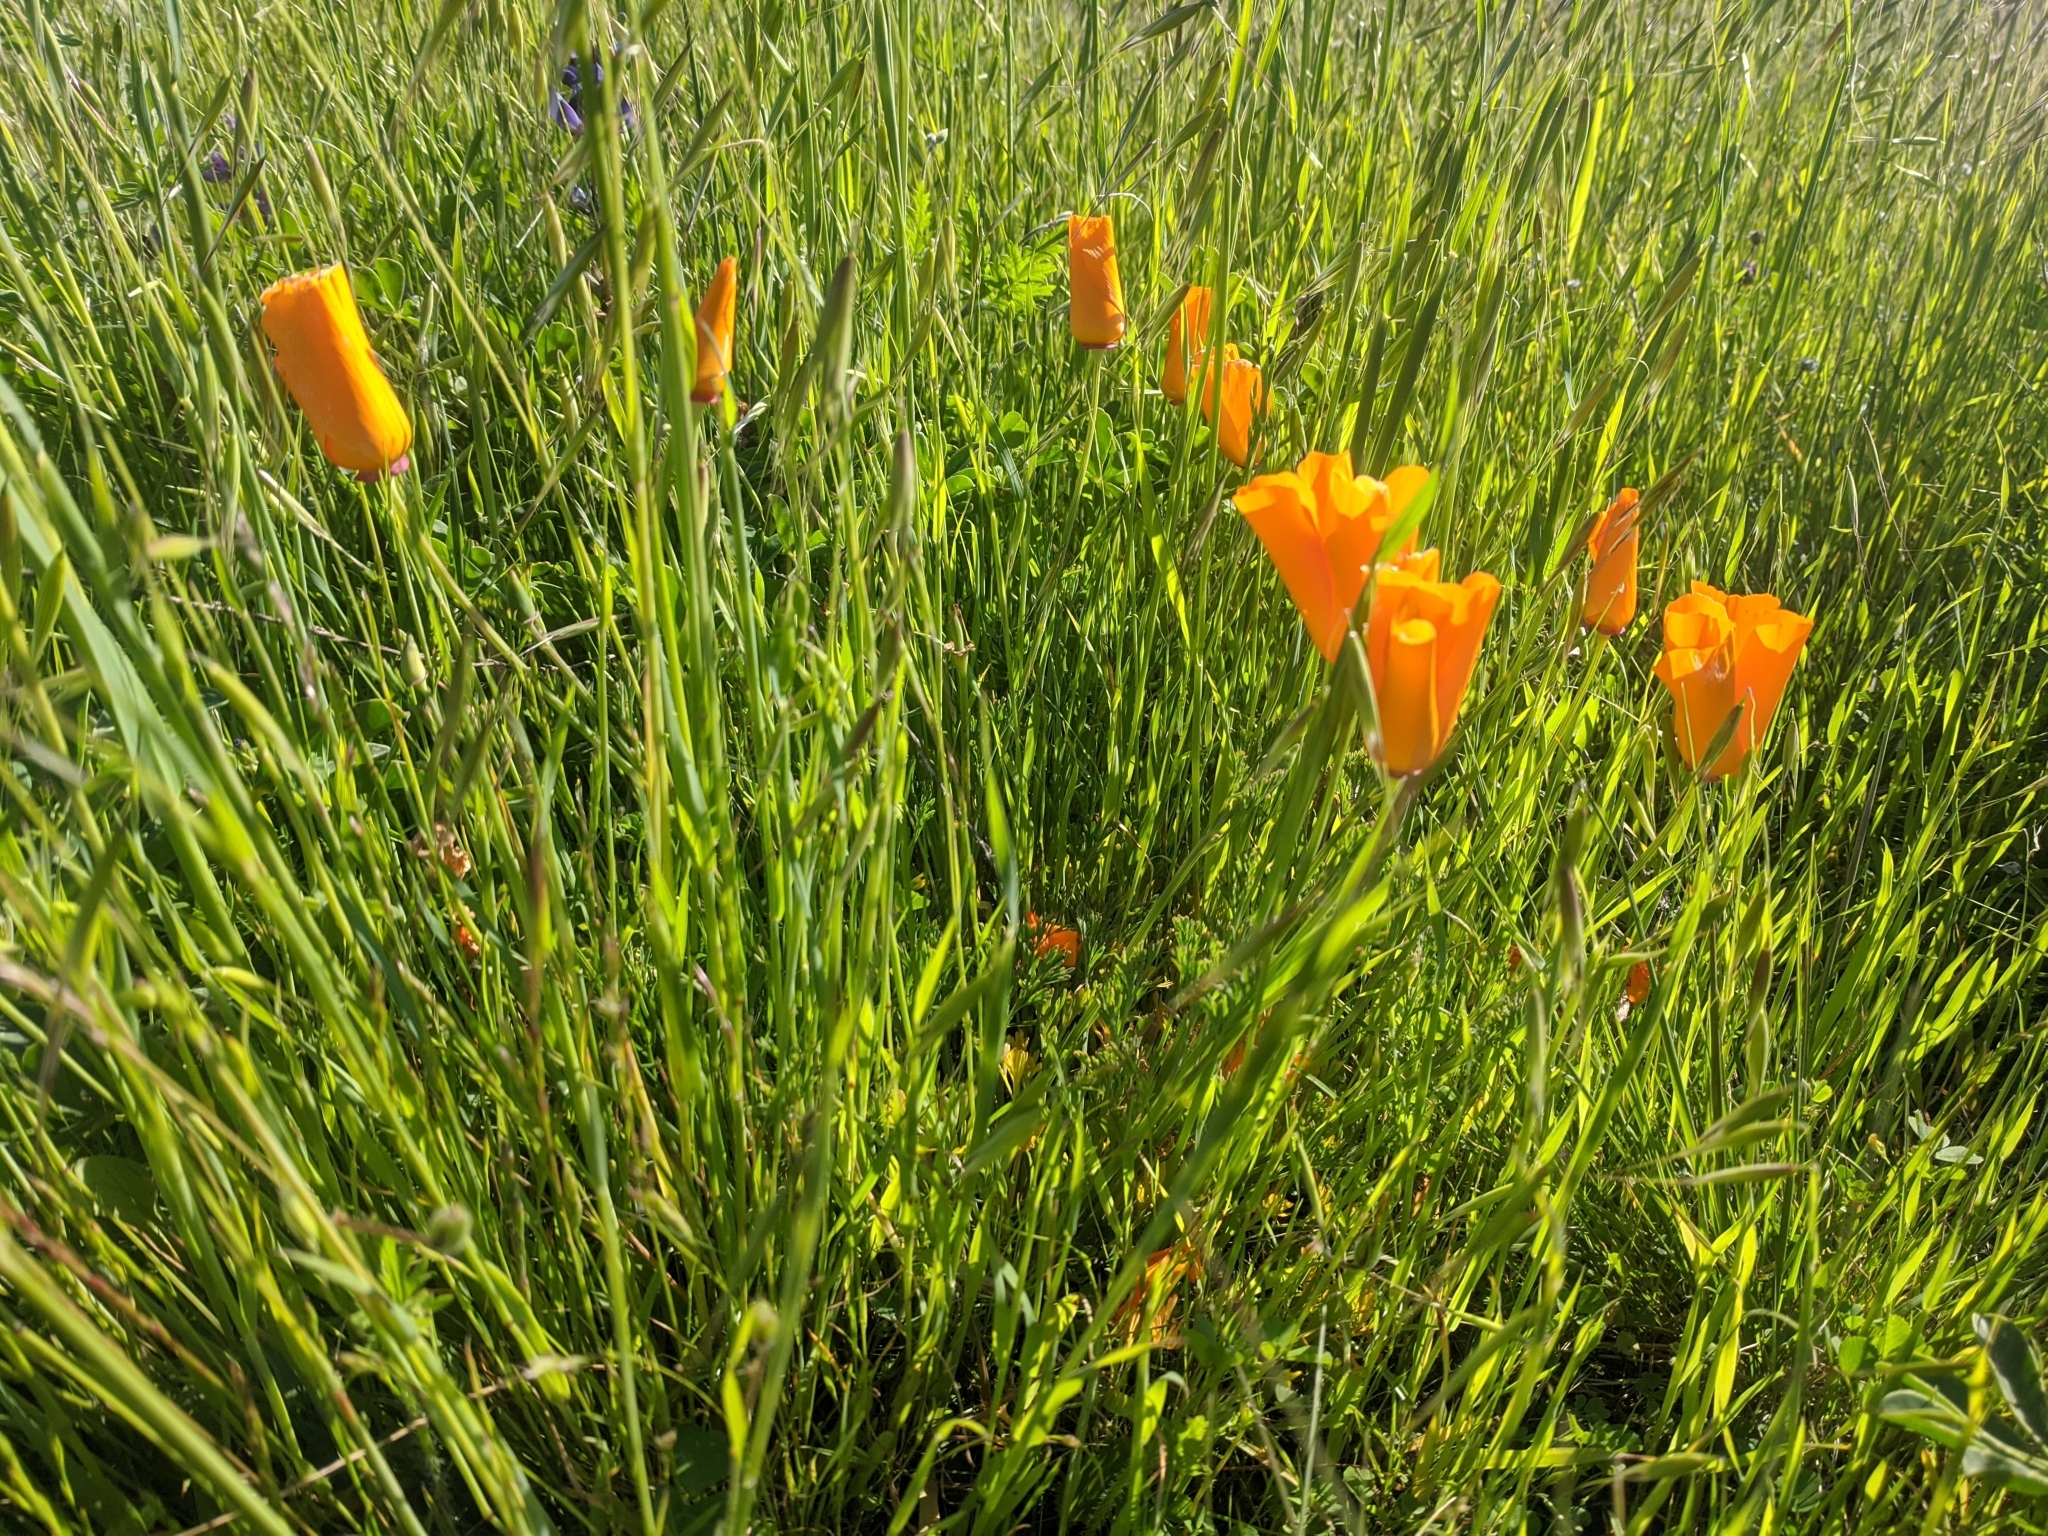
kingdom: Plantae
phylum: Tracheophyta
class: Magnoliopsida
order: Ranunculales
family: Papaveraceae
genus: Eschscholzia
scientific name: Eschscholzia californica
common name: California poppy
